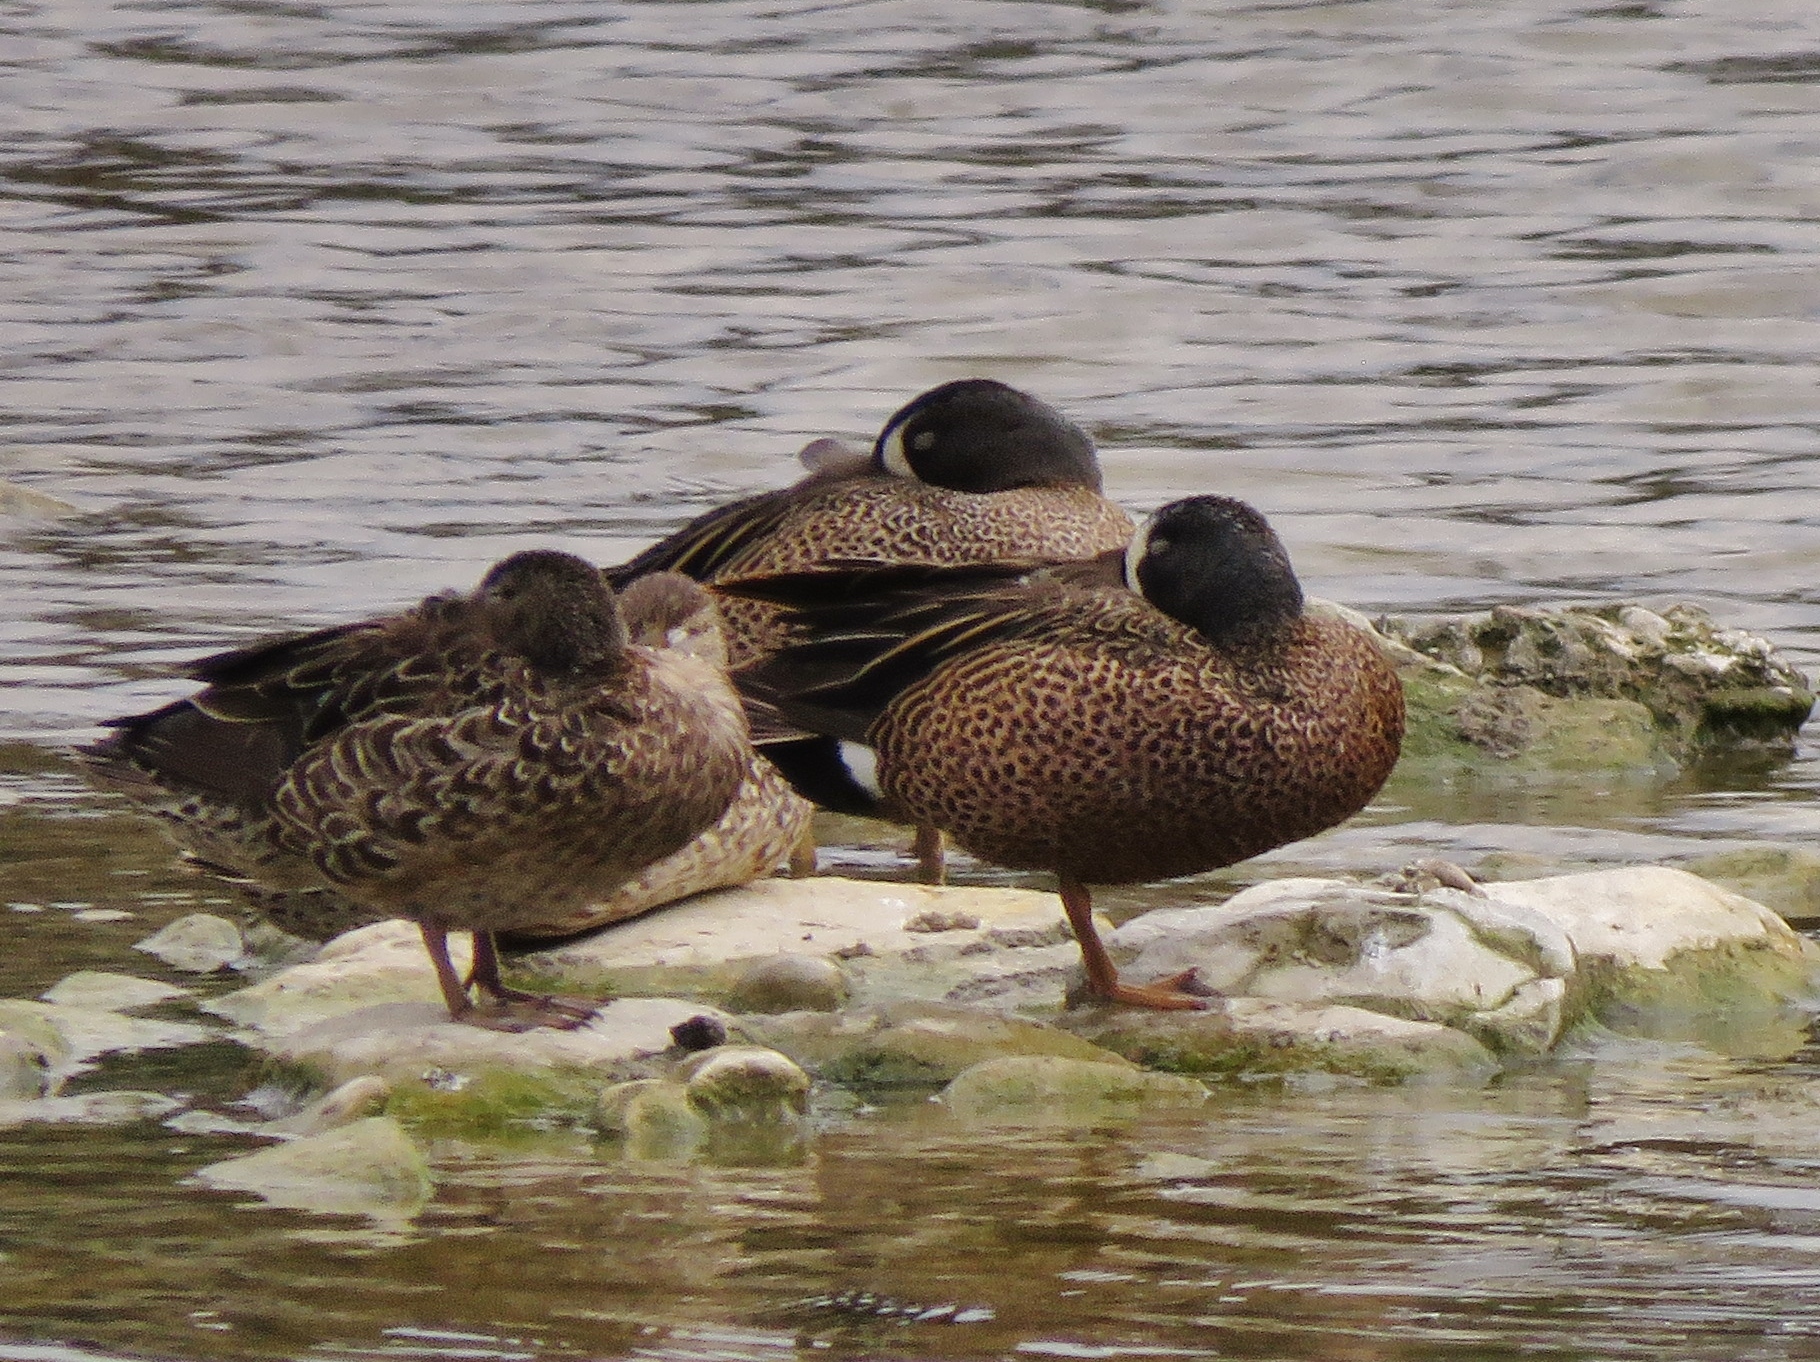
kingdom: Animalia
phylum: Chordata
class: Aves
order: Anseriformes
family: Anatidae
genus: Spatula
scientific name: Spatula discors
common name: Blue-winged teal
